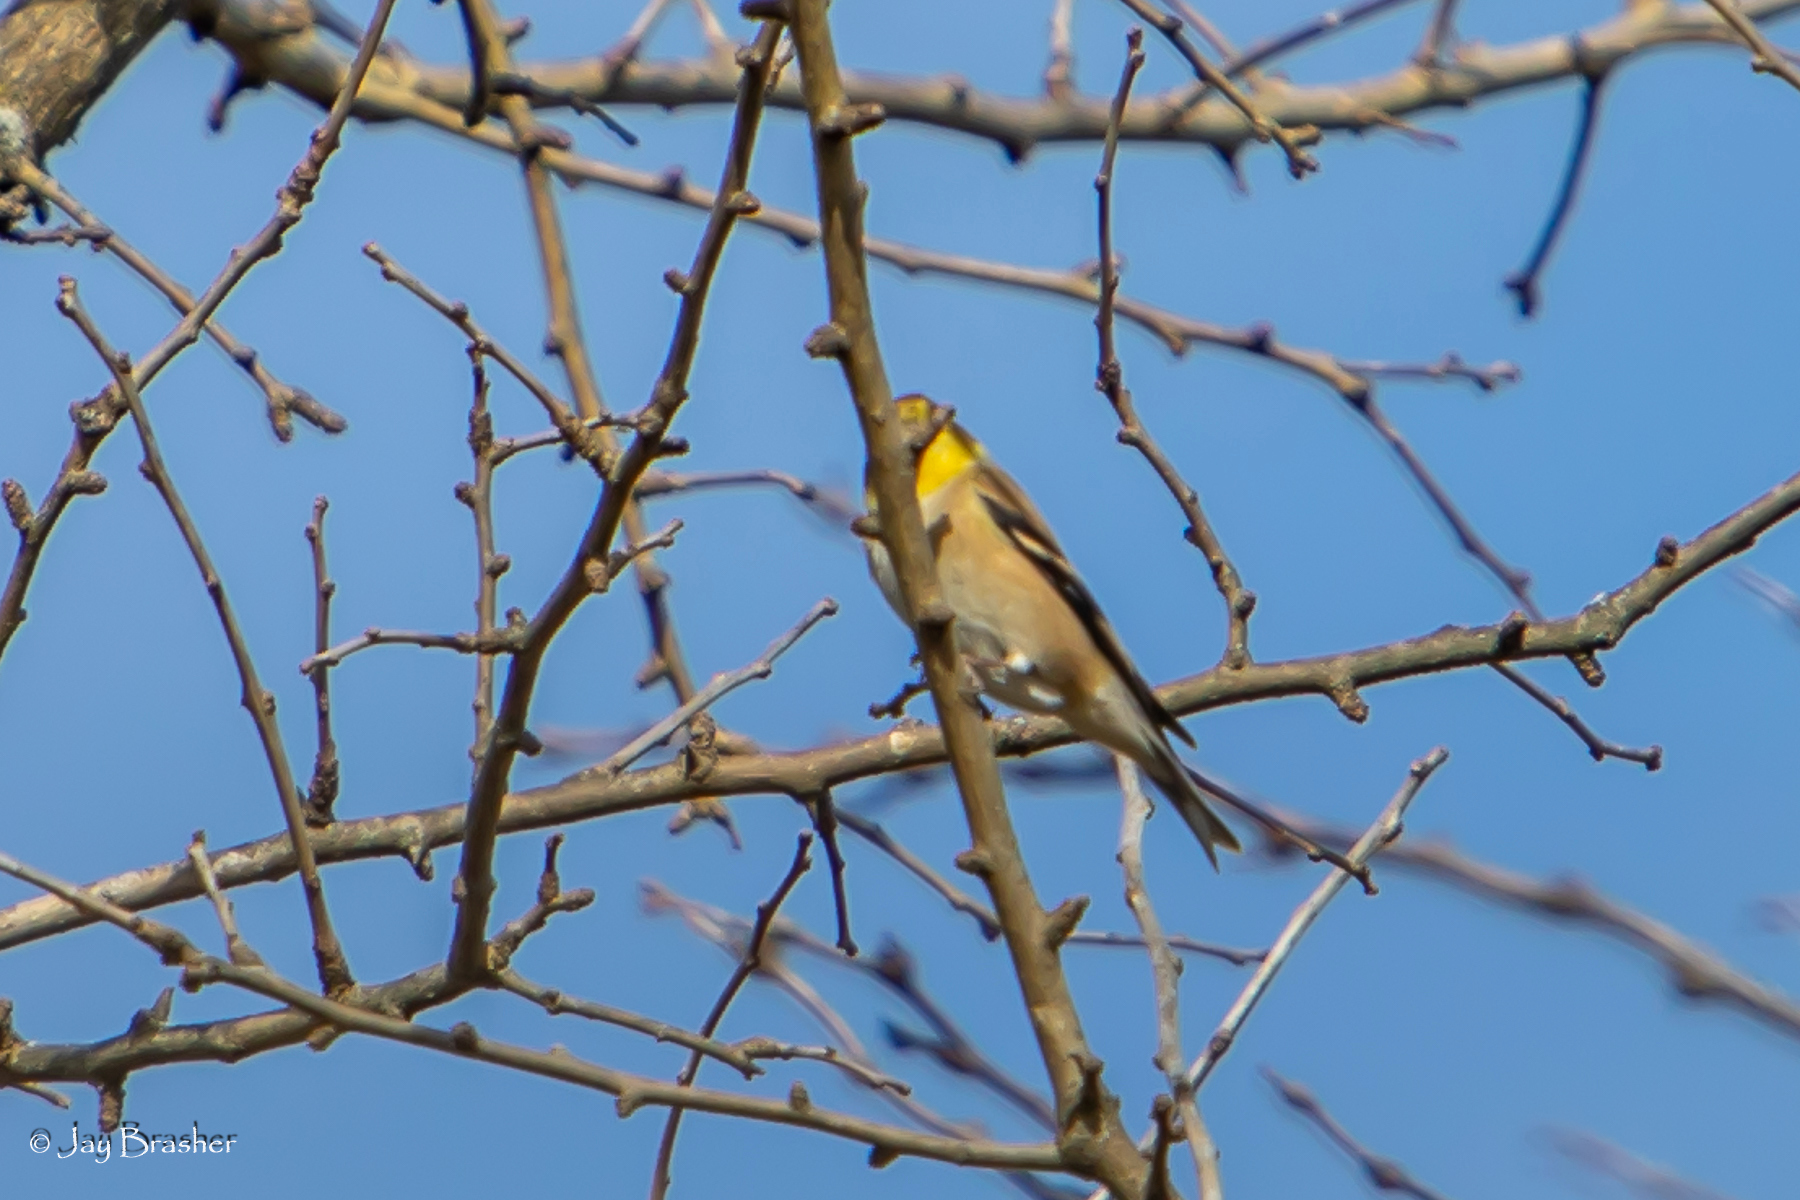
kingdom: Animalia
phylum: Chordata
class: Aves
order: Passeriformes
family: Fringillidae
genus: Spinus
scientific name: Spinus tristis
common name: American goldfinch
